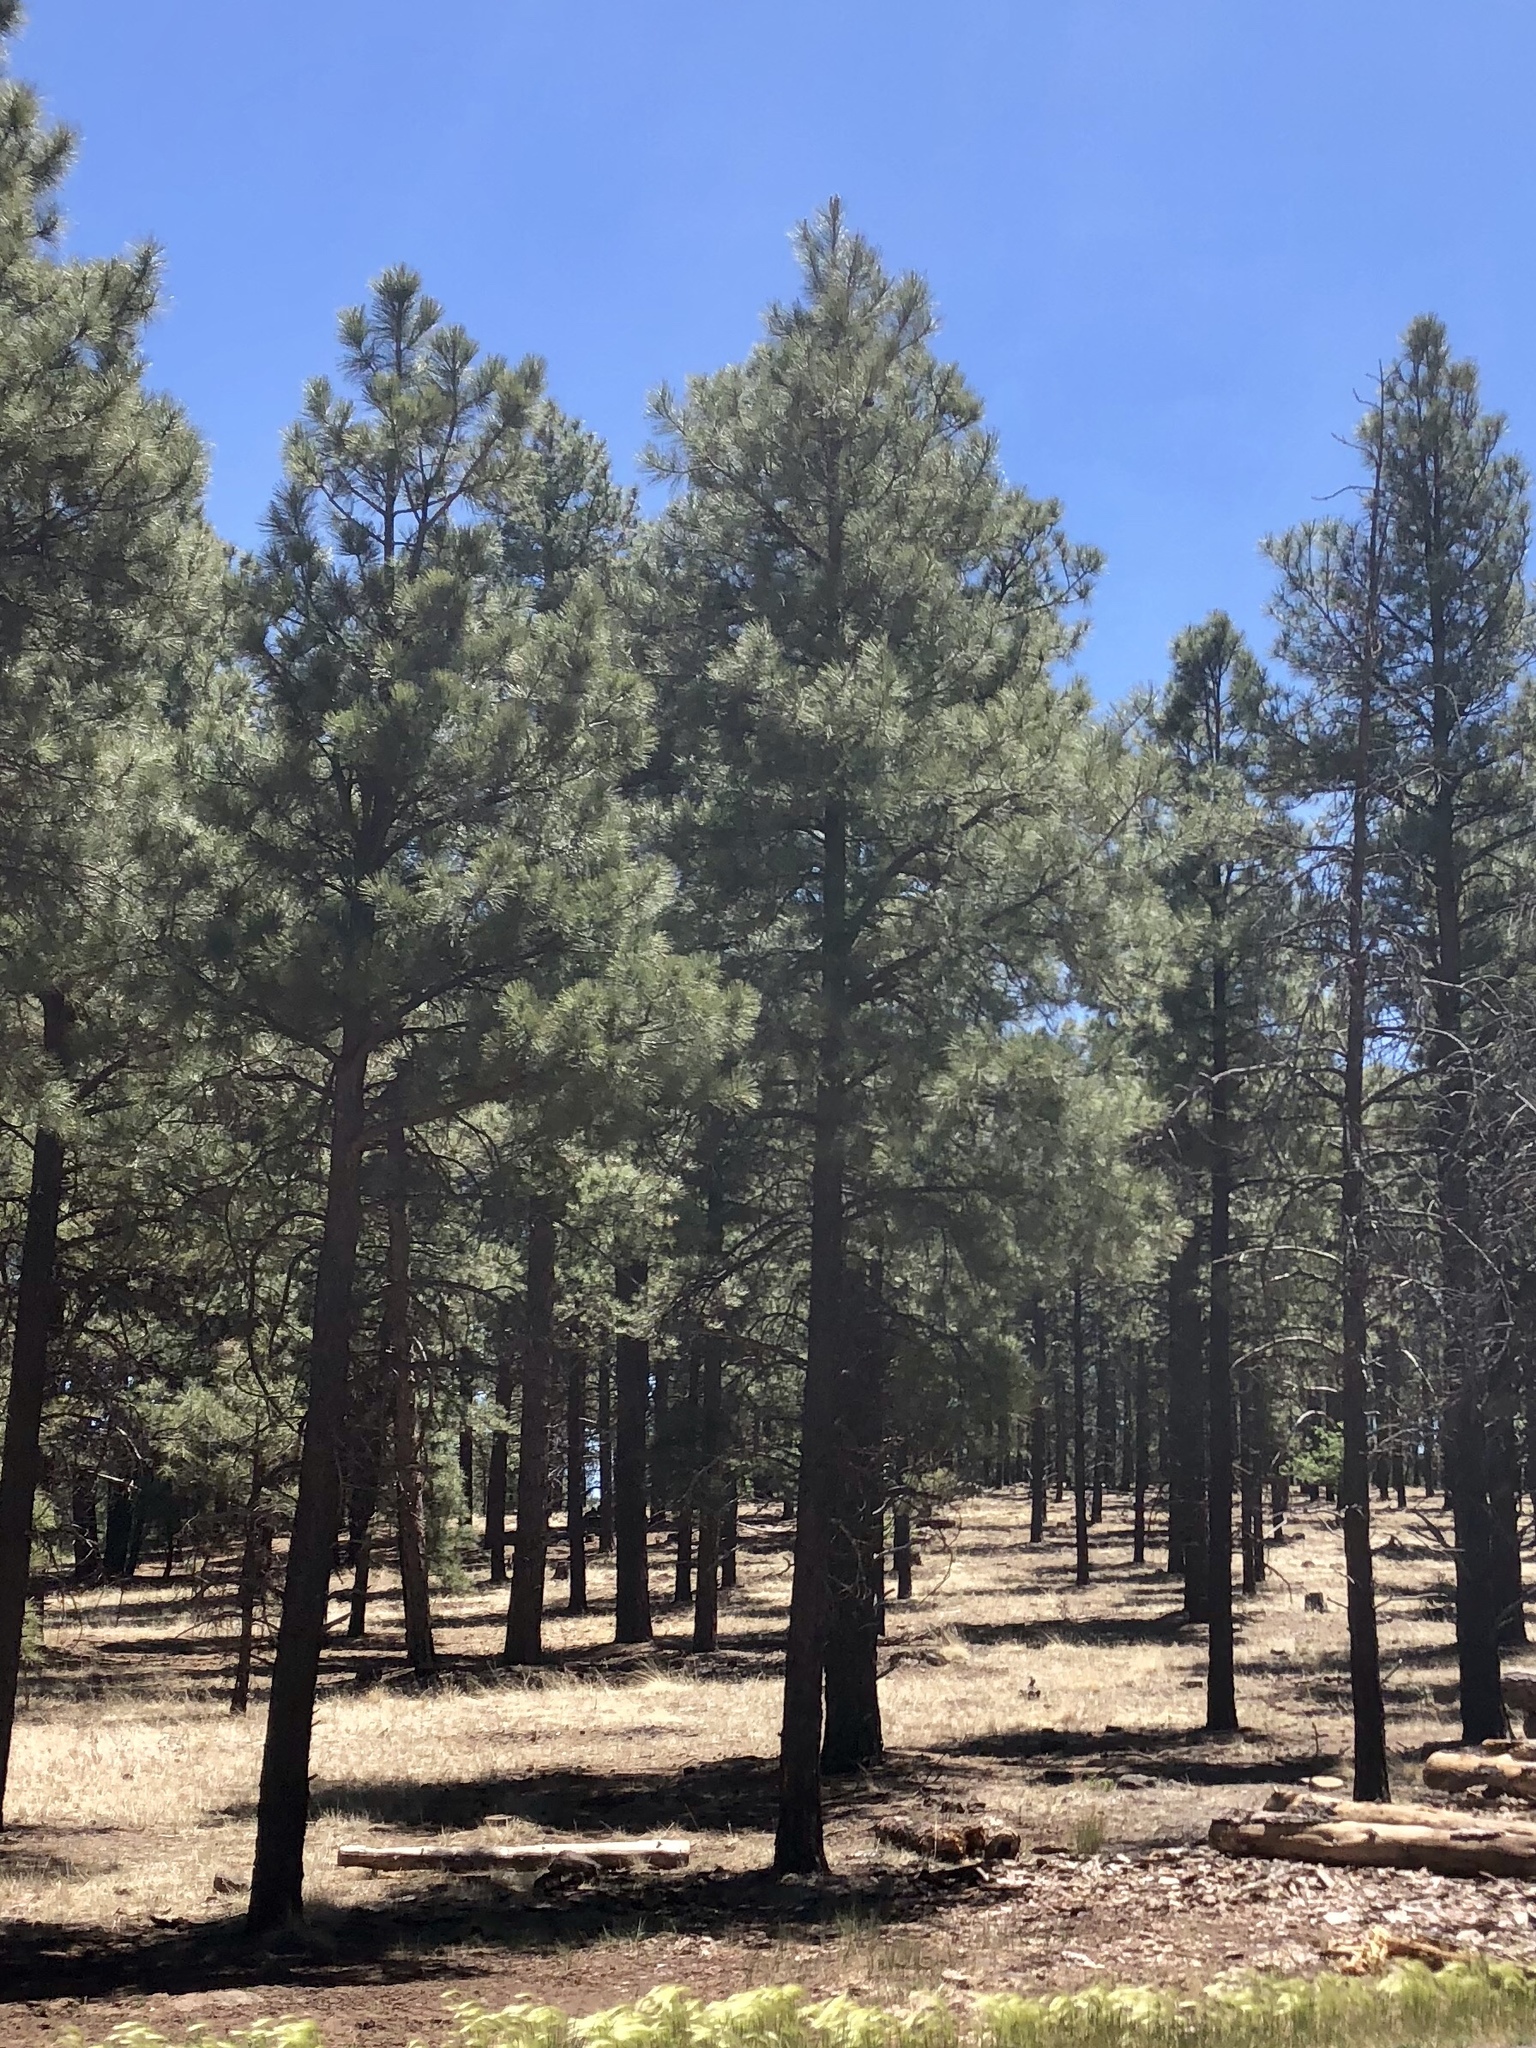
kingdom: Plantae
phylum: Tracheophyta
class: Pinopsida
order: Pinales
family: Pinaceae
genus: Pinus
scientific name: Pinus ponderosa
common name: Western yellow-pine
